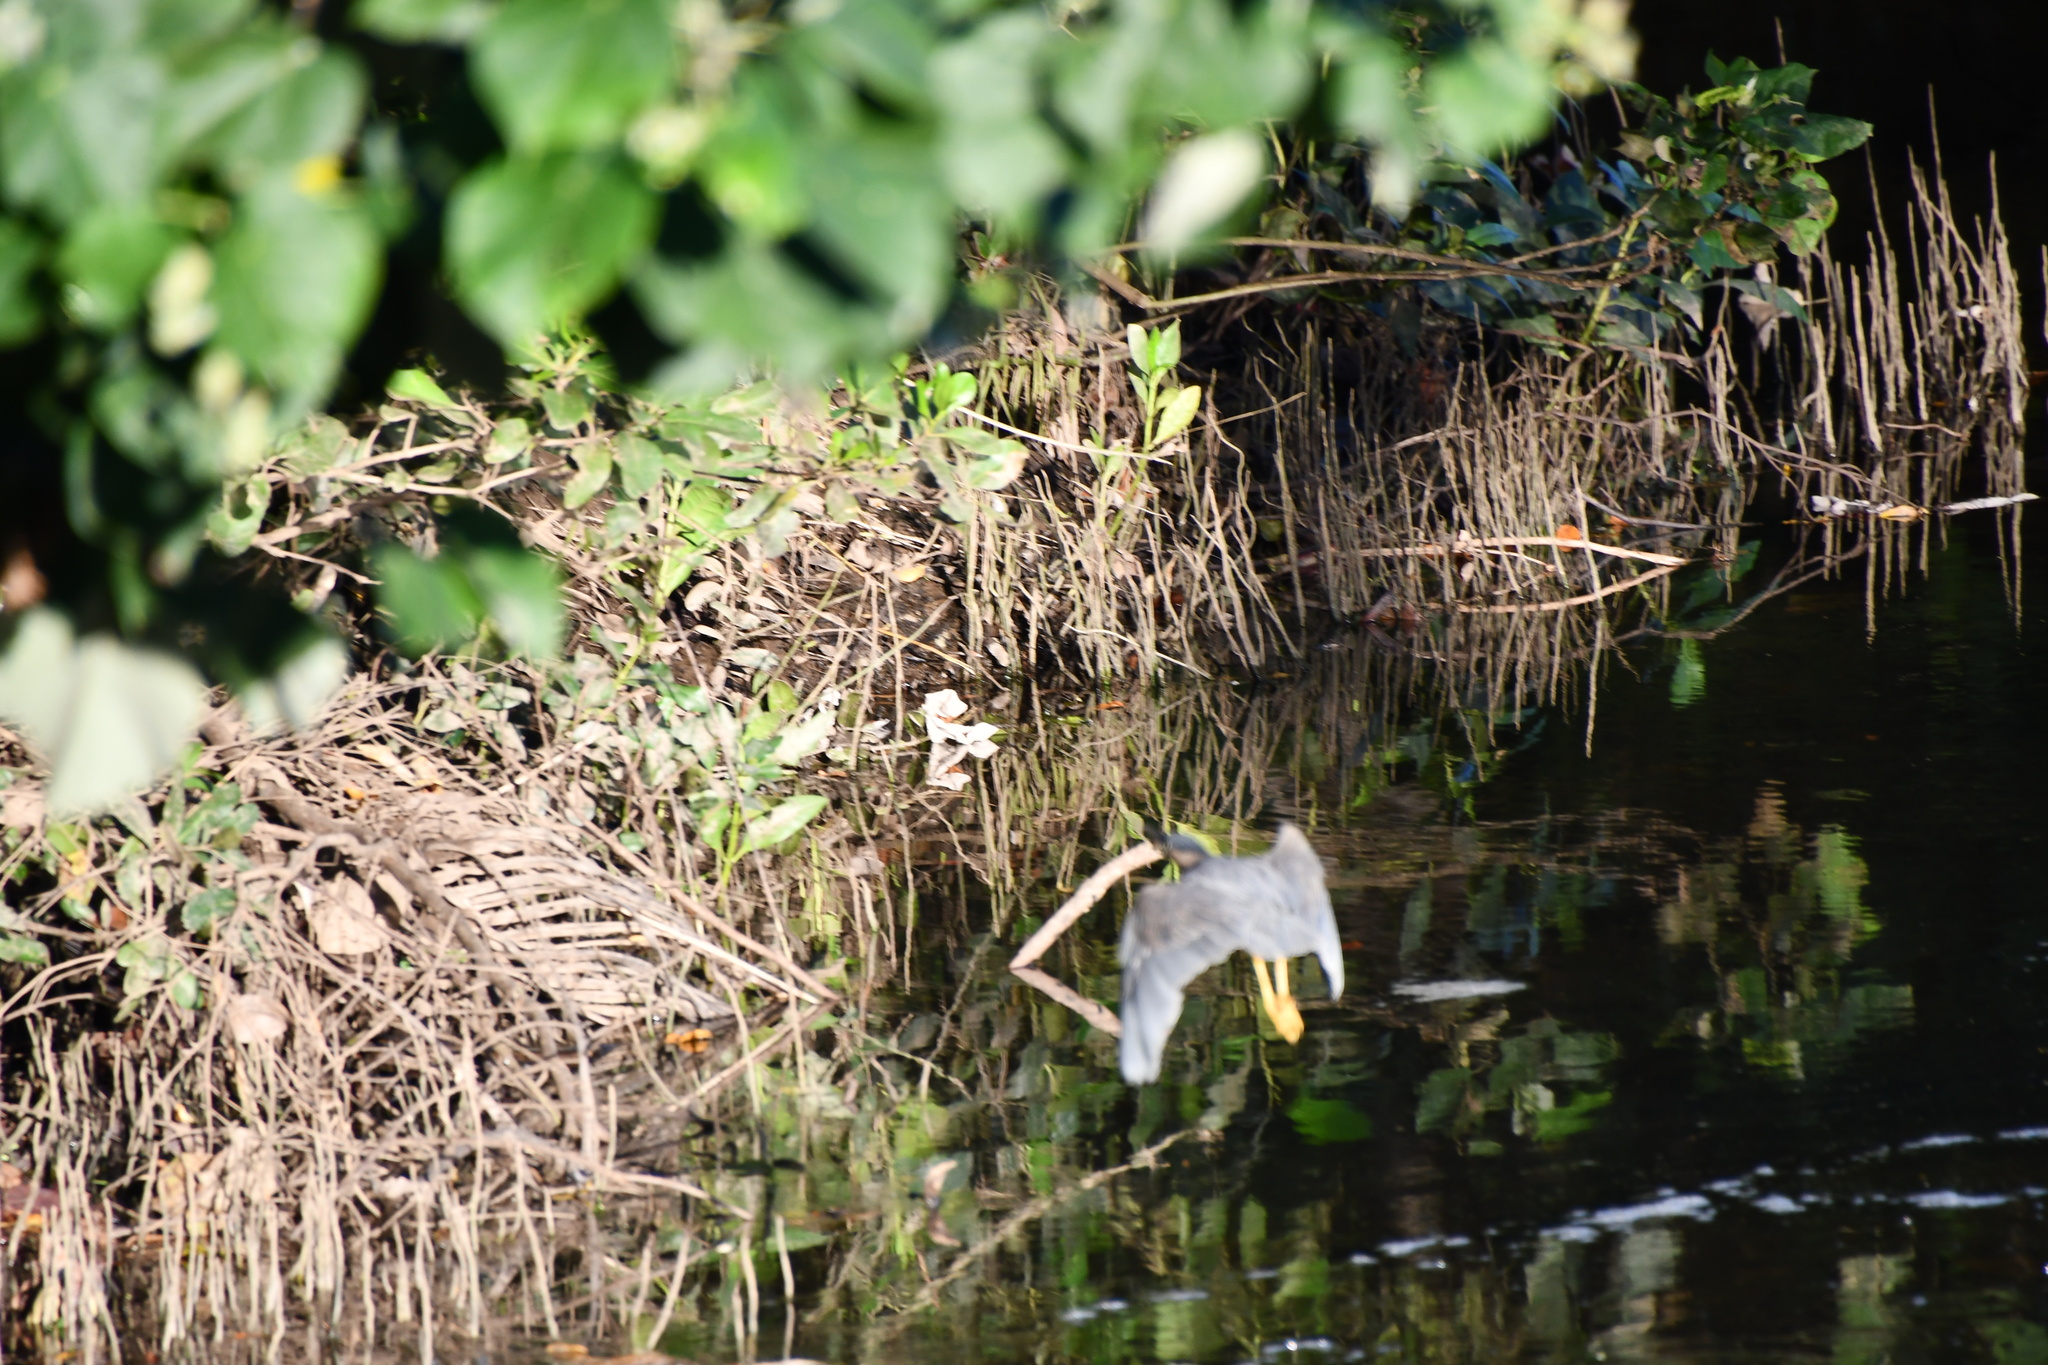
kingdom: Animalia
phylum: Chordata
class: Aves
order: Pelecaniformes
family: Ardeidae
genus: Butorides
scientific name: Butorides striata
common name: Striated heron
